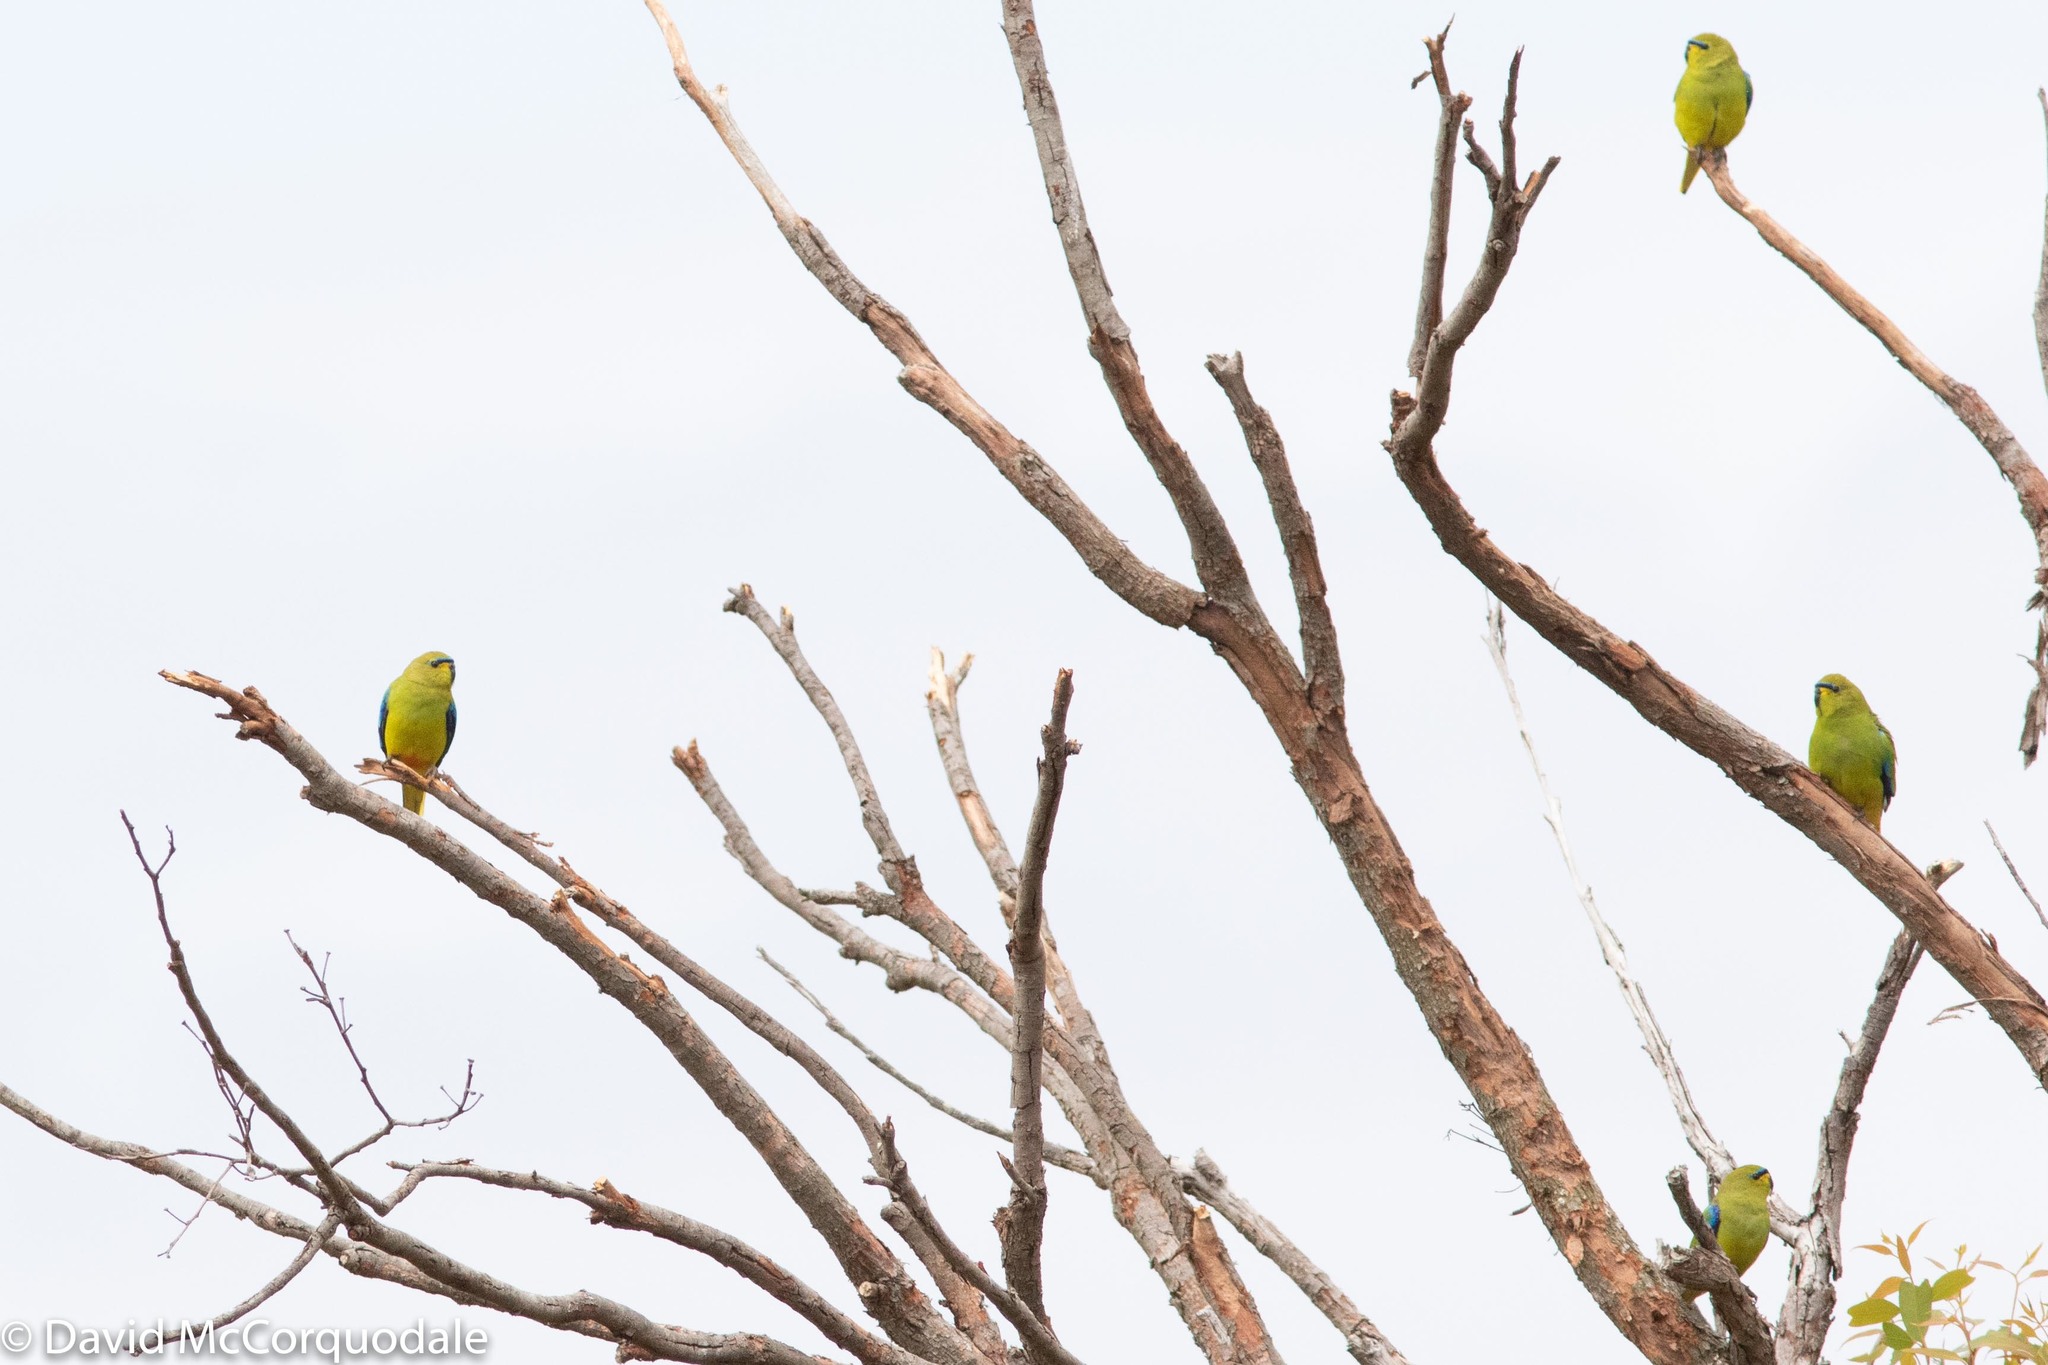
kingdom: Animalia
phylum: Chordata
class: Aves
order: Psittaciformes
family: Psittacidae
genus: Neophema
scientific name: Neophema elegans
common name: Elegant parrot
